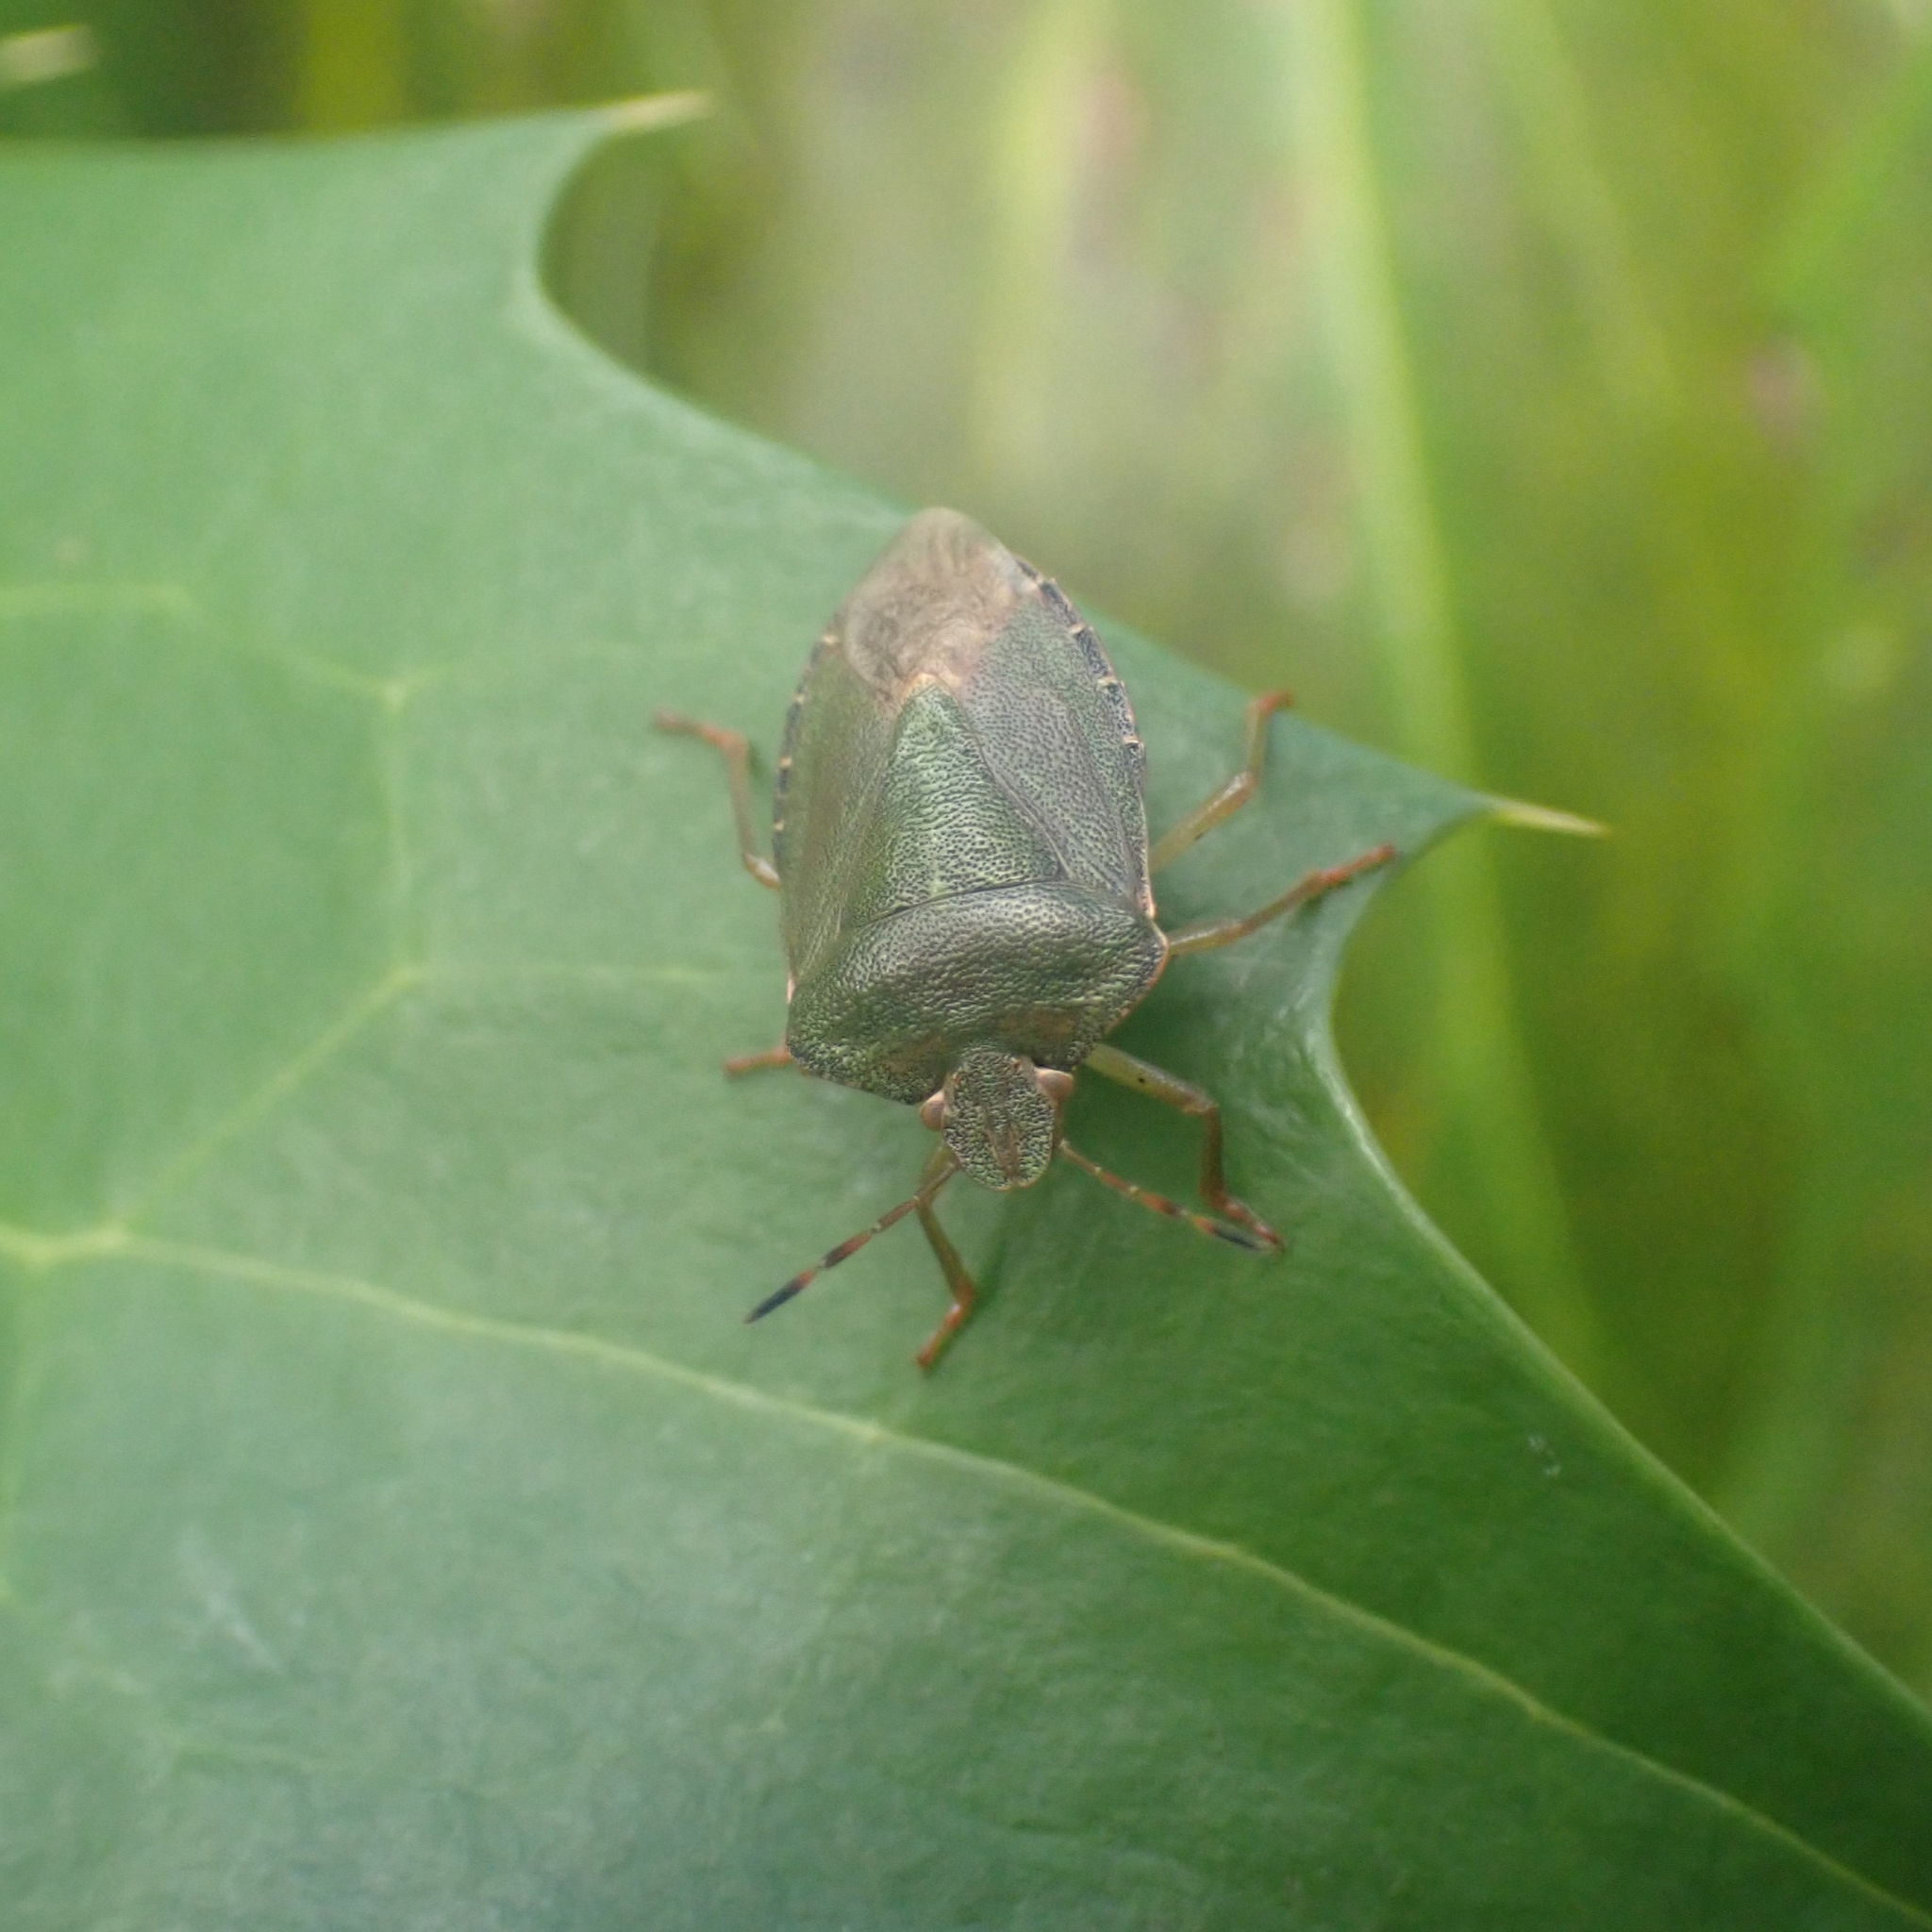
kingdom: Animalia
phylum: Arthropoda
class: Insecta
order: Hemiptera
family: Pentatomidae
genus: Palomena
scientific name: Palomena prasina
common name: Green shieldbug
